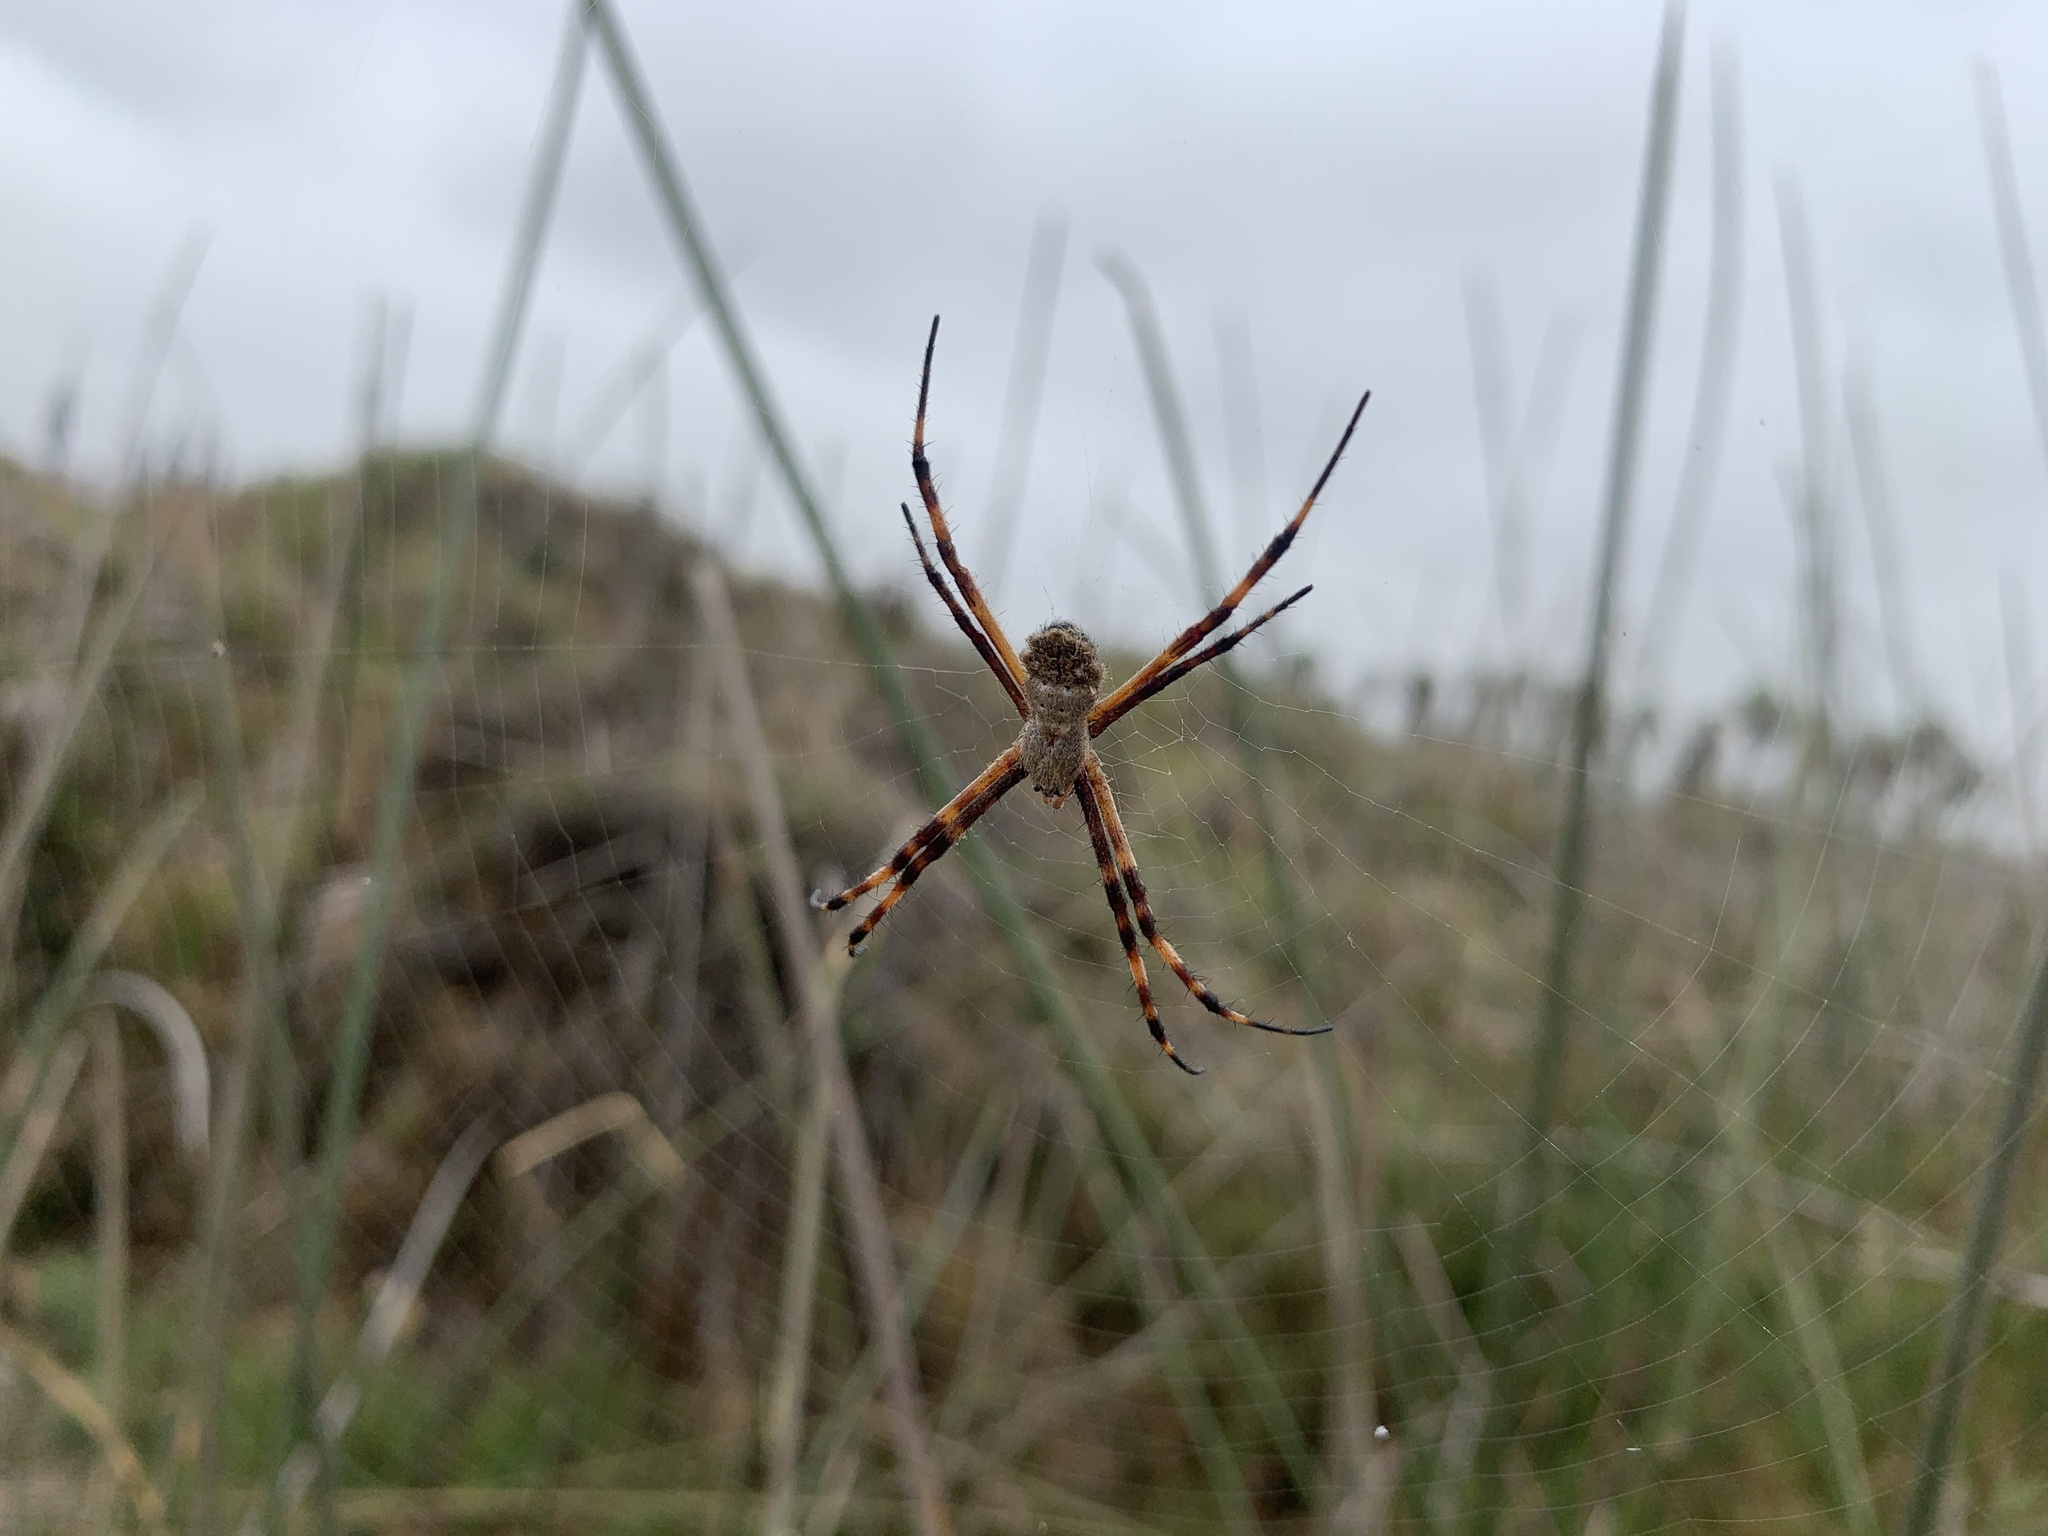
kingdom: Animalia
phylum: Arthropoda
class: Arachnida
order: Araneae
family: Araneidae
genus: Argiope
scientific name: Argiope argentata
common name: Orb weavers
